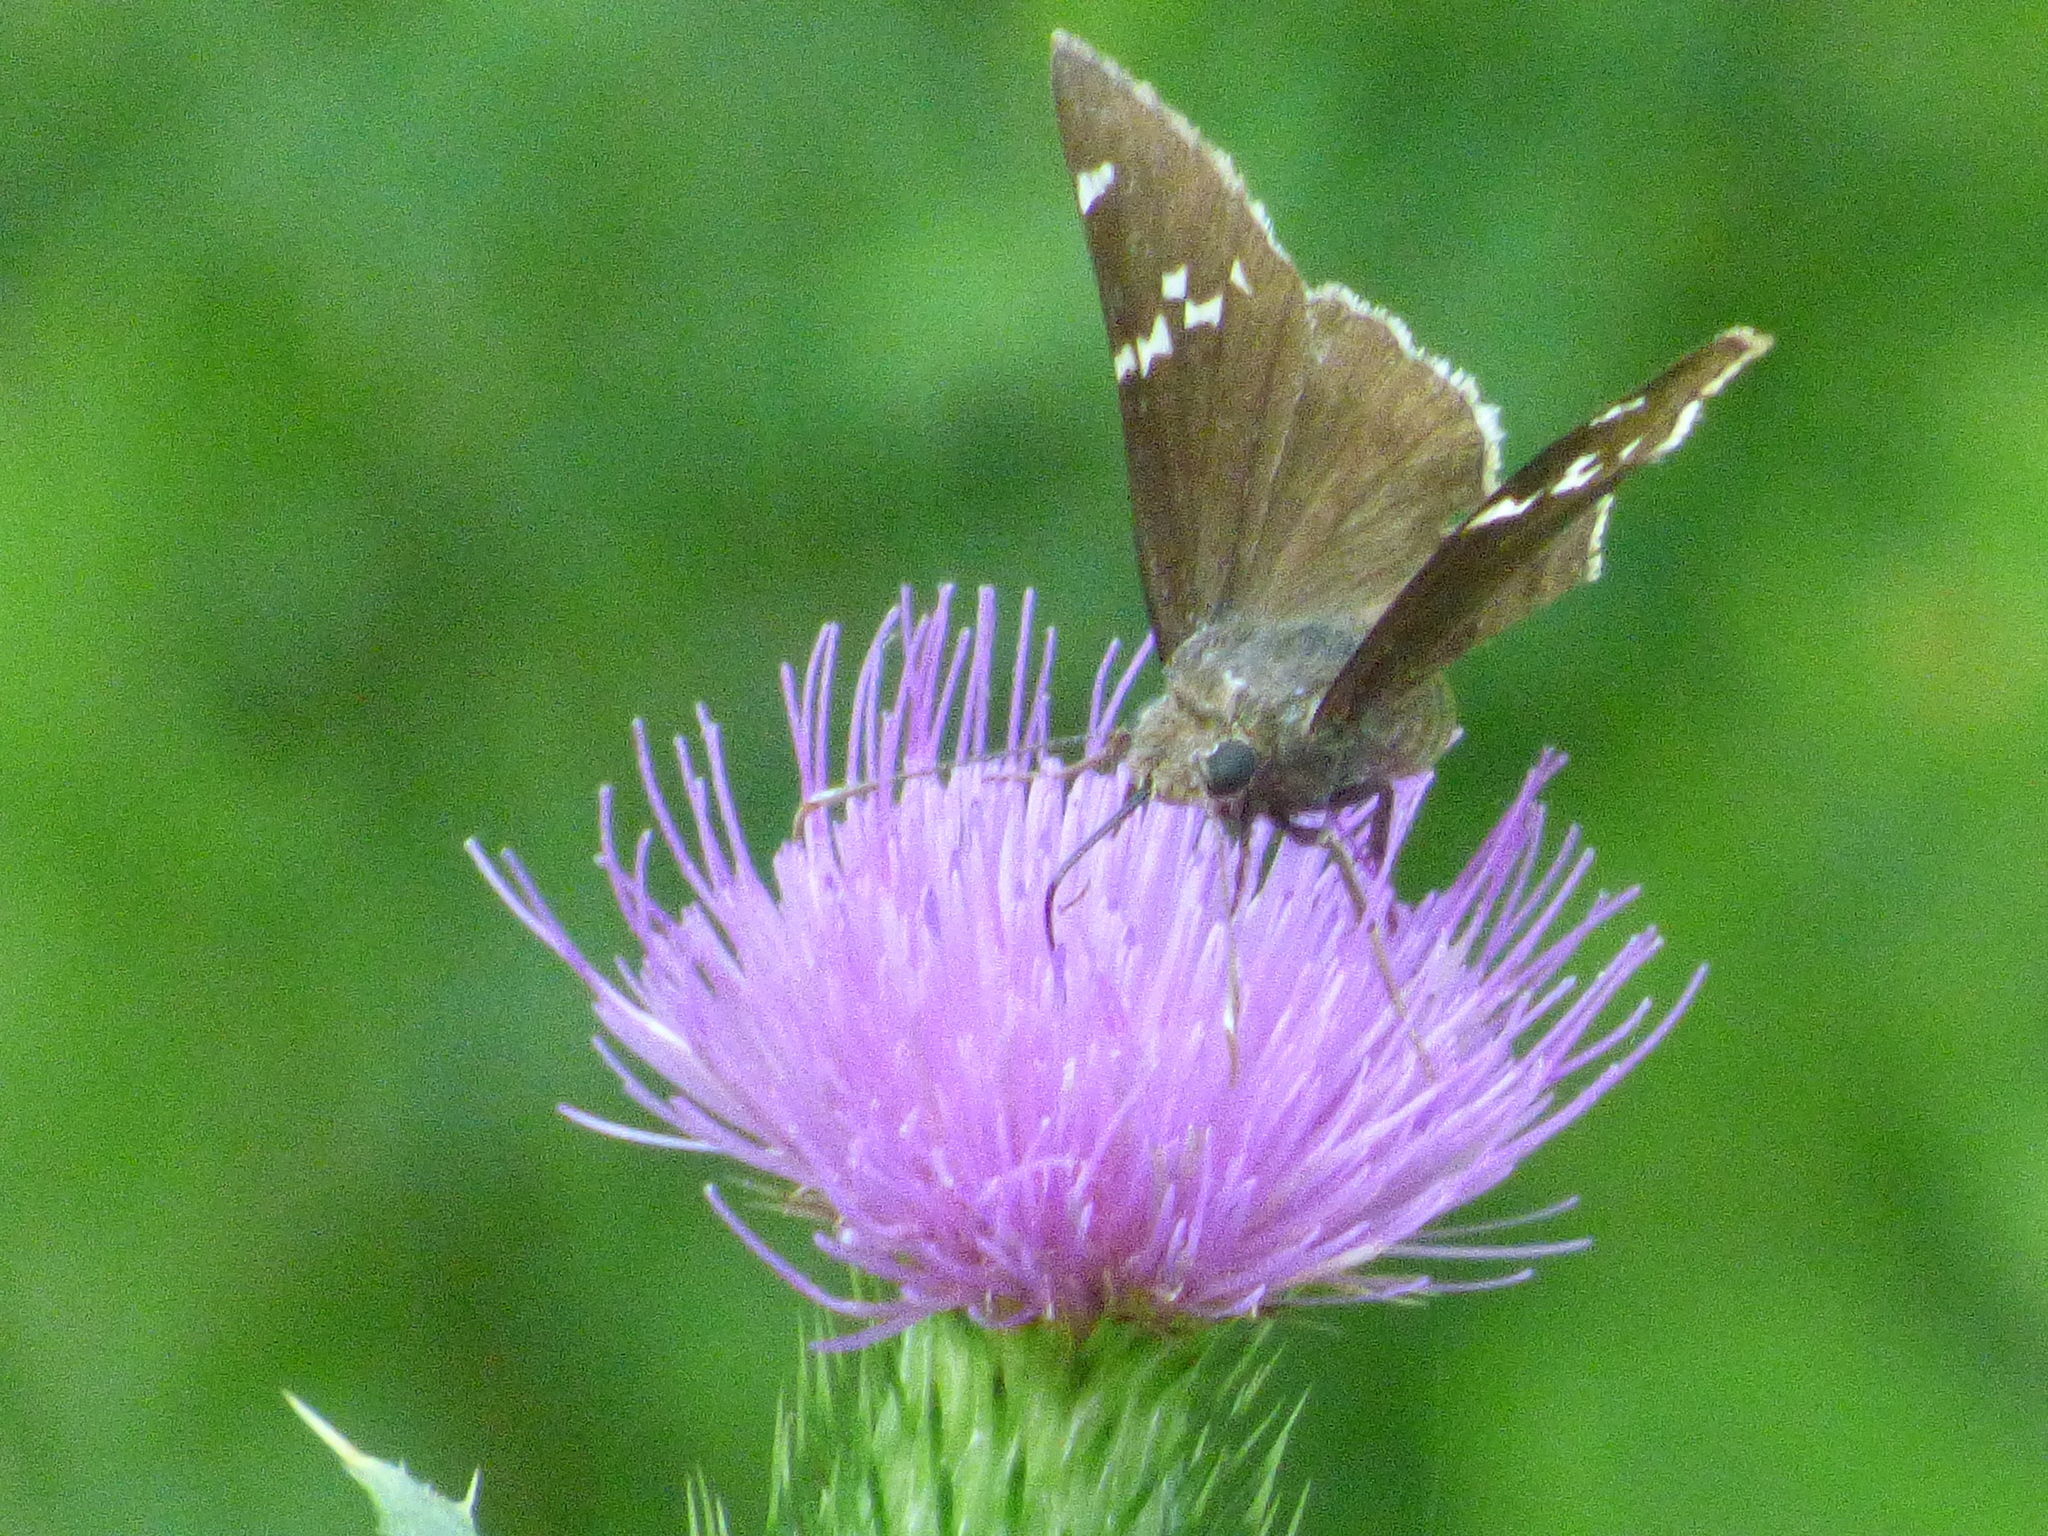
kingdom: Animalia
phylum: Arthropoda
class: Insecta
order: Lepidoptera
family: Hesperiidae
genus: Thorybes
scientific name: Thorybes daunus
